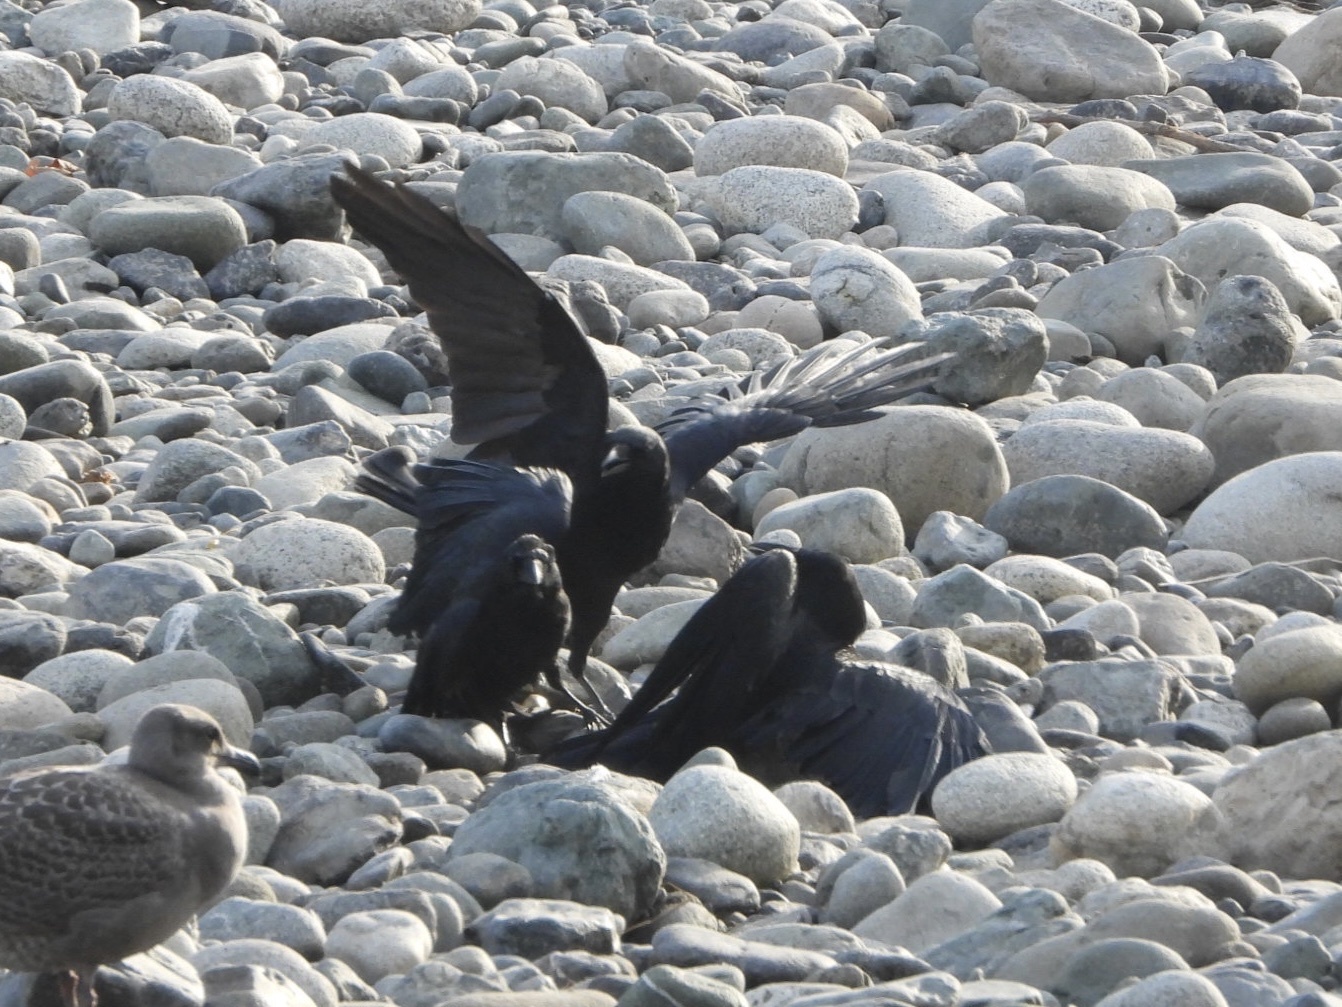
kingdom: Animalia
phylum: Chordata
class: Aves
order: Passeriformes
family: Corvidae
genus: Corvus
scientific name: Corvus brachyrhynchos
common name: American crow
